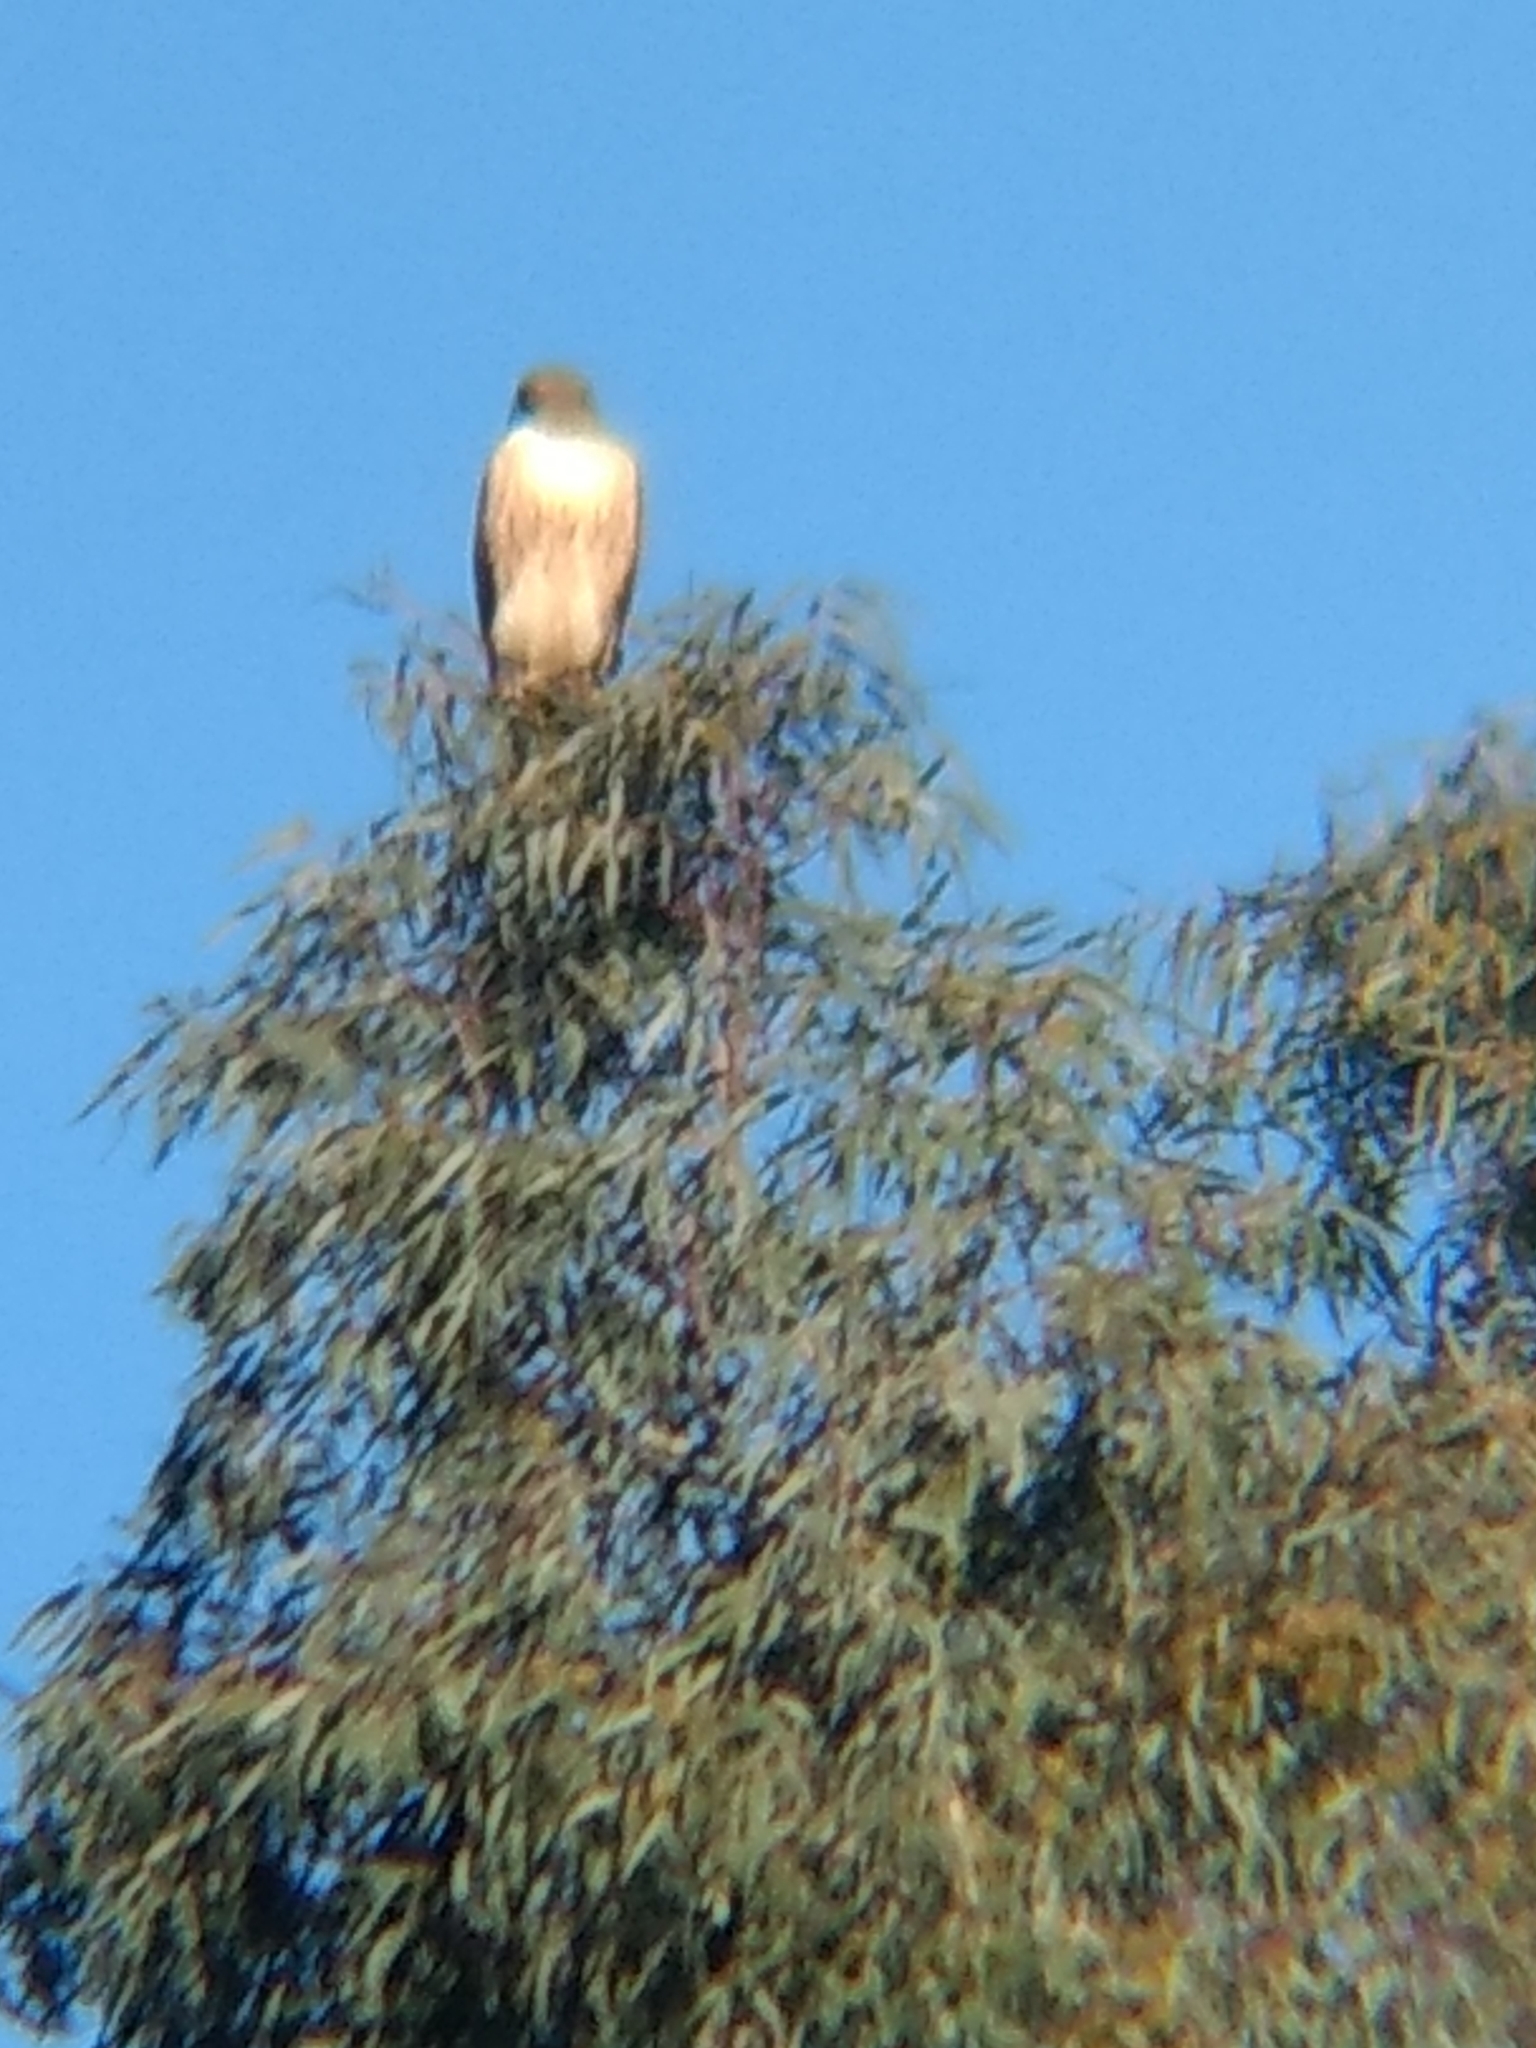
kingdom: Animalia
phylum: Chordata
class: Aves
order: Accipitriformes
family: Accipitridae
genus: Buteo
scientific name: Buteo jamaicensis
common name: Red-tailed hawk
